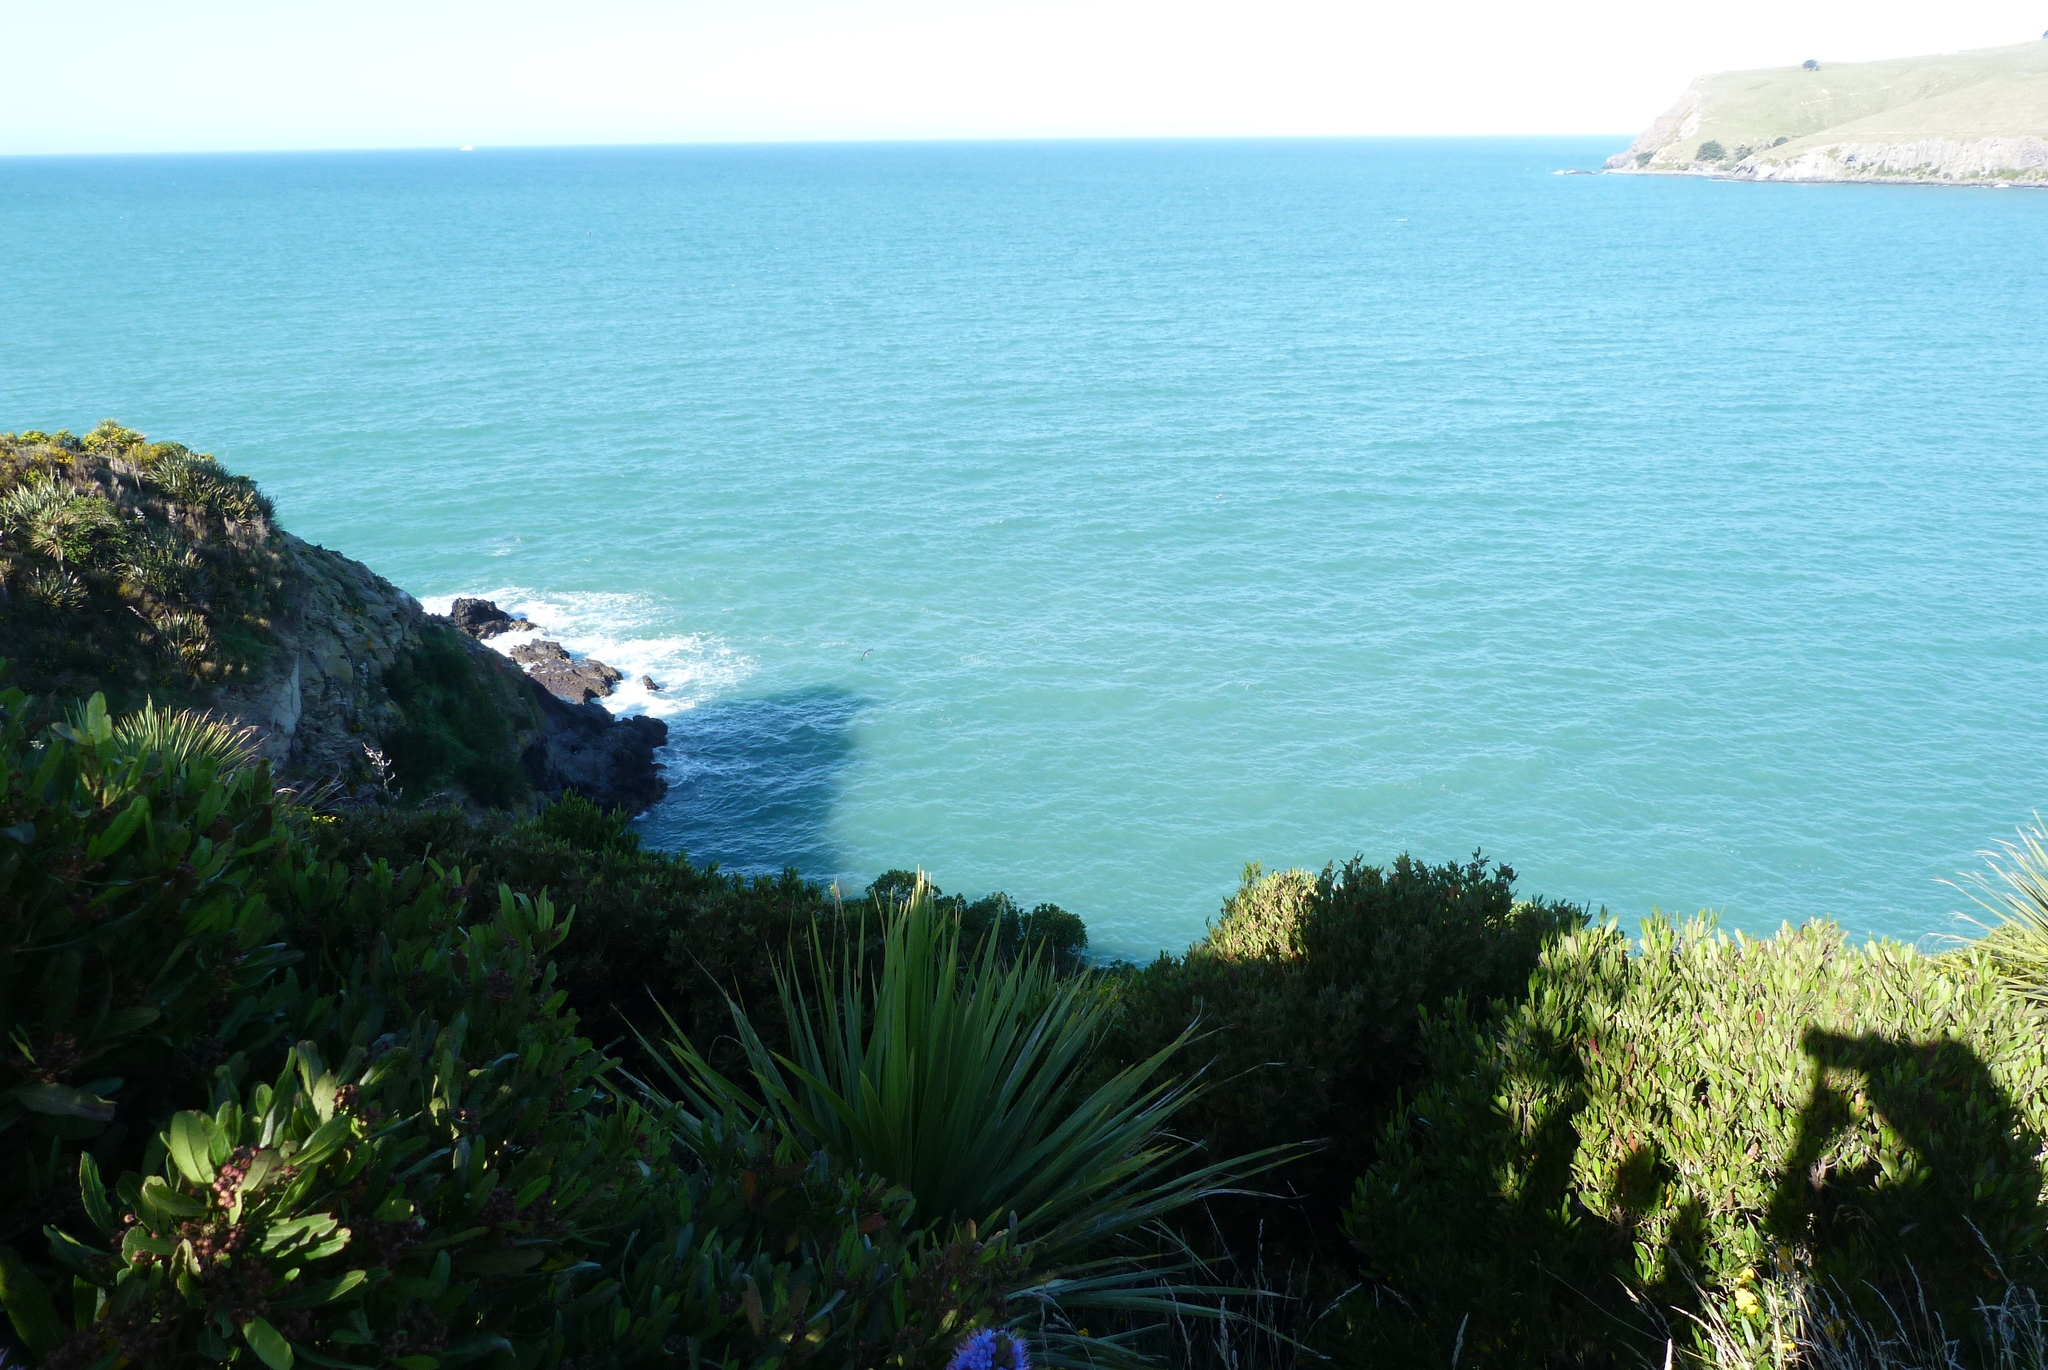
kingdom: Plantae
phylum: Tracheophyta
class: Magnoliopsida
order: Sapindales
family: Sapindaceae
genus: Dodonaea
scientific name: Dodonaea viscosa
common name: Hopbush
